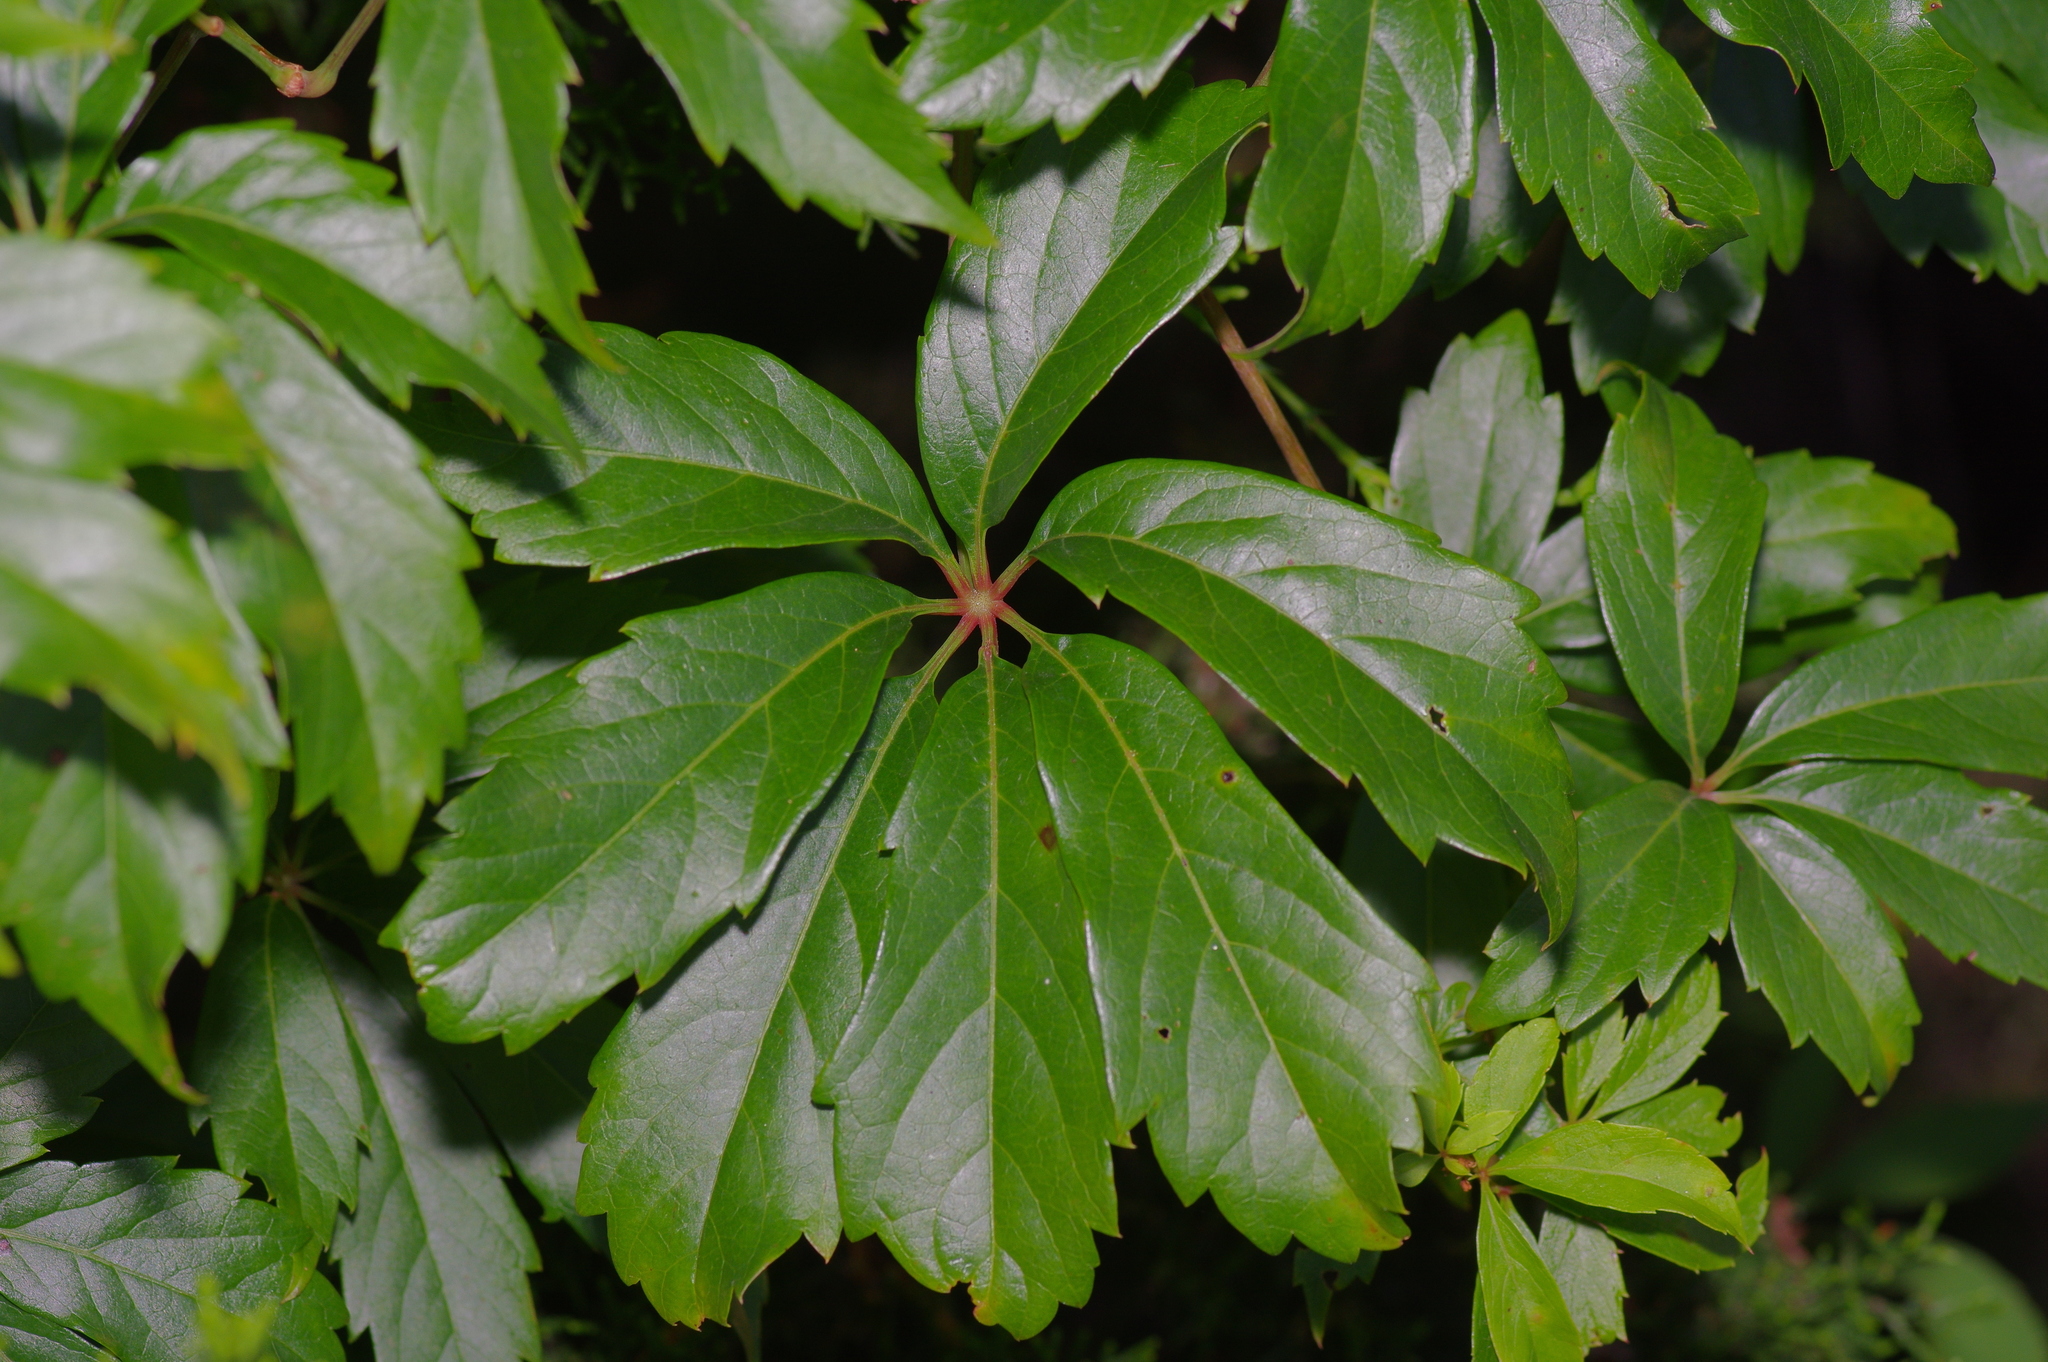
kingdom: Plantae
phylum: Tracheophyta
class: Magnoliopsida
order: Vitales
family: Vitaceae
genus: Parthenocissus
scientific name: Parthenocissus heptaphylla
